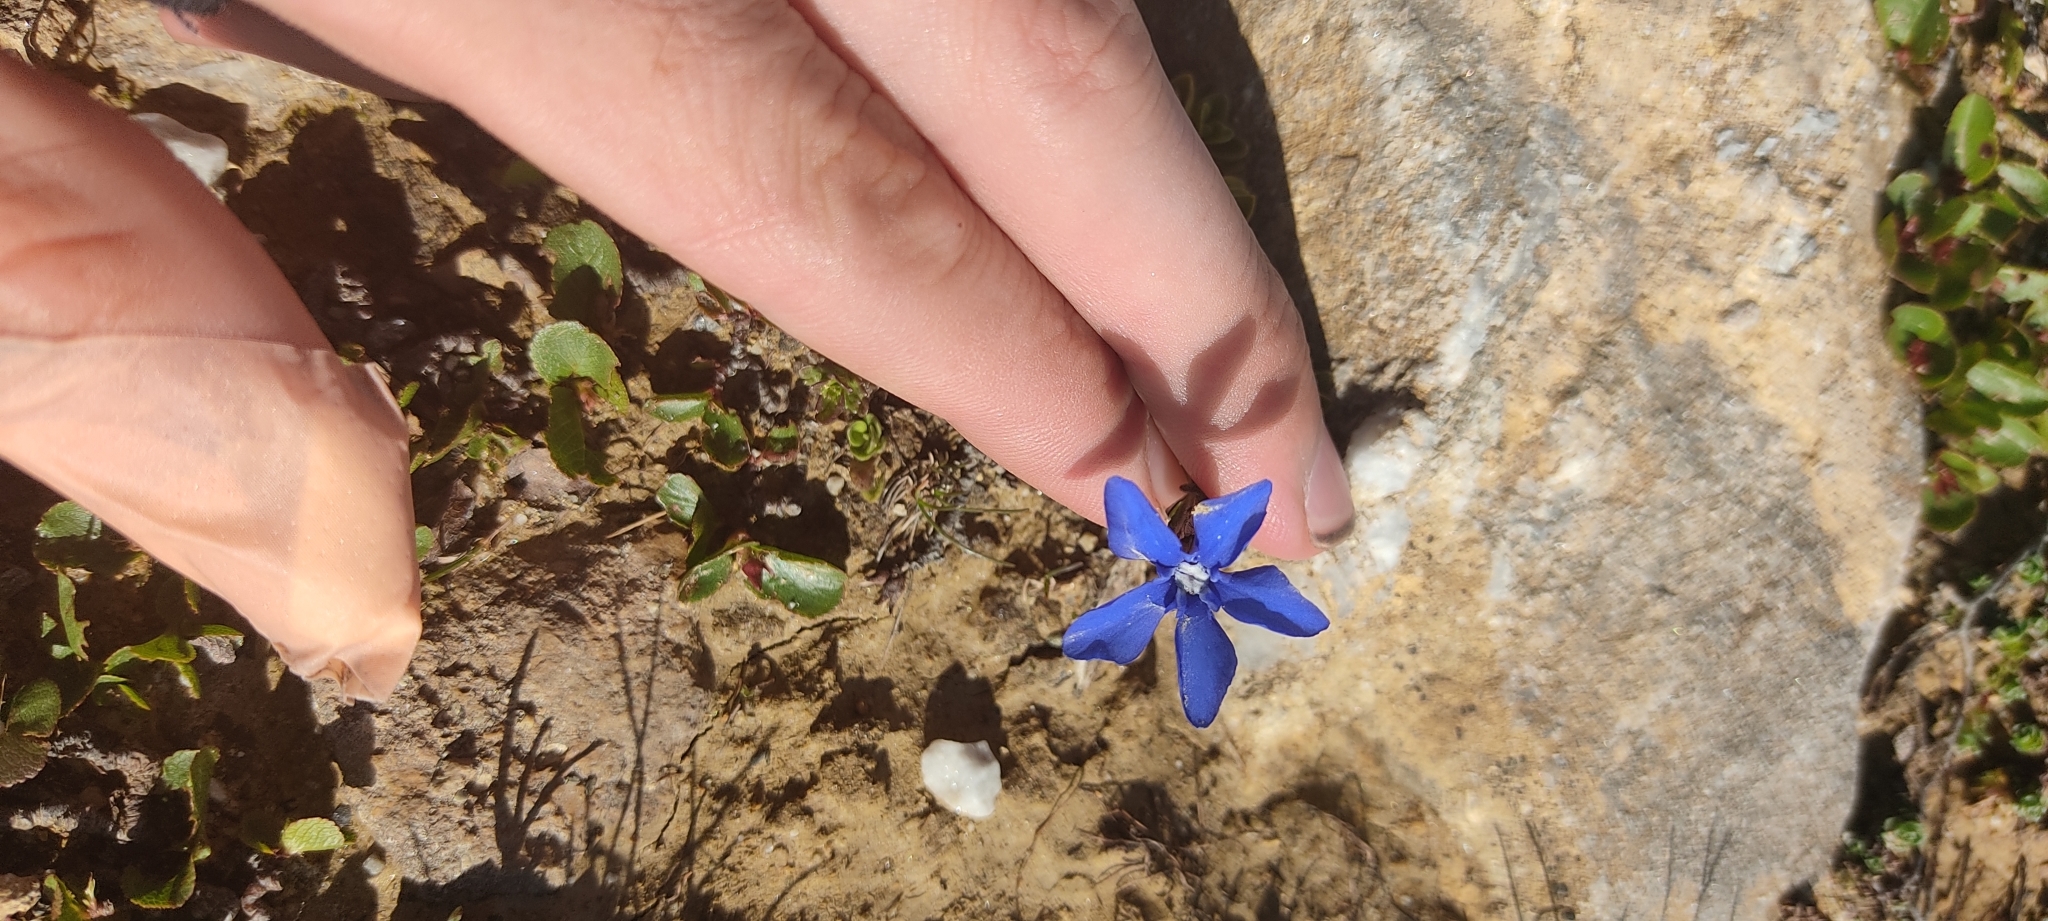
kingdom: Plantae
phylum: Tracheophyta
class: Magnoliopsida
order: Gentianales
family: Gentianaceae
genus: Gentiana
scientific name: Gentiana orbicularis
